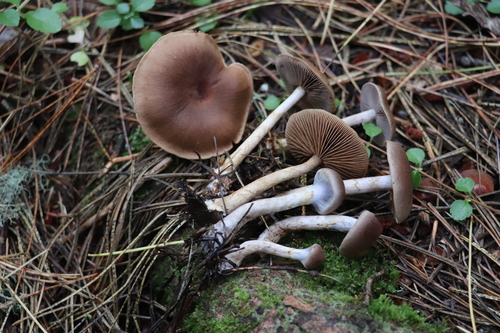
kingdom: Fungi
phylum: Basidiomycota
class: Agaricomycetes
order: Agaricales
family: Cortinariaceae
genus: Cortinarius
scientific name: Cortinarius
